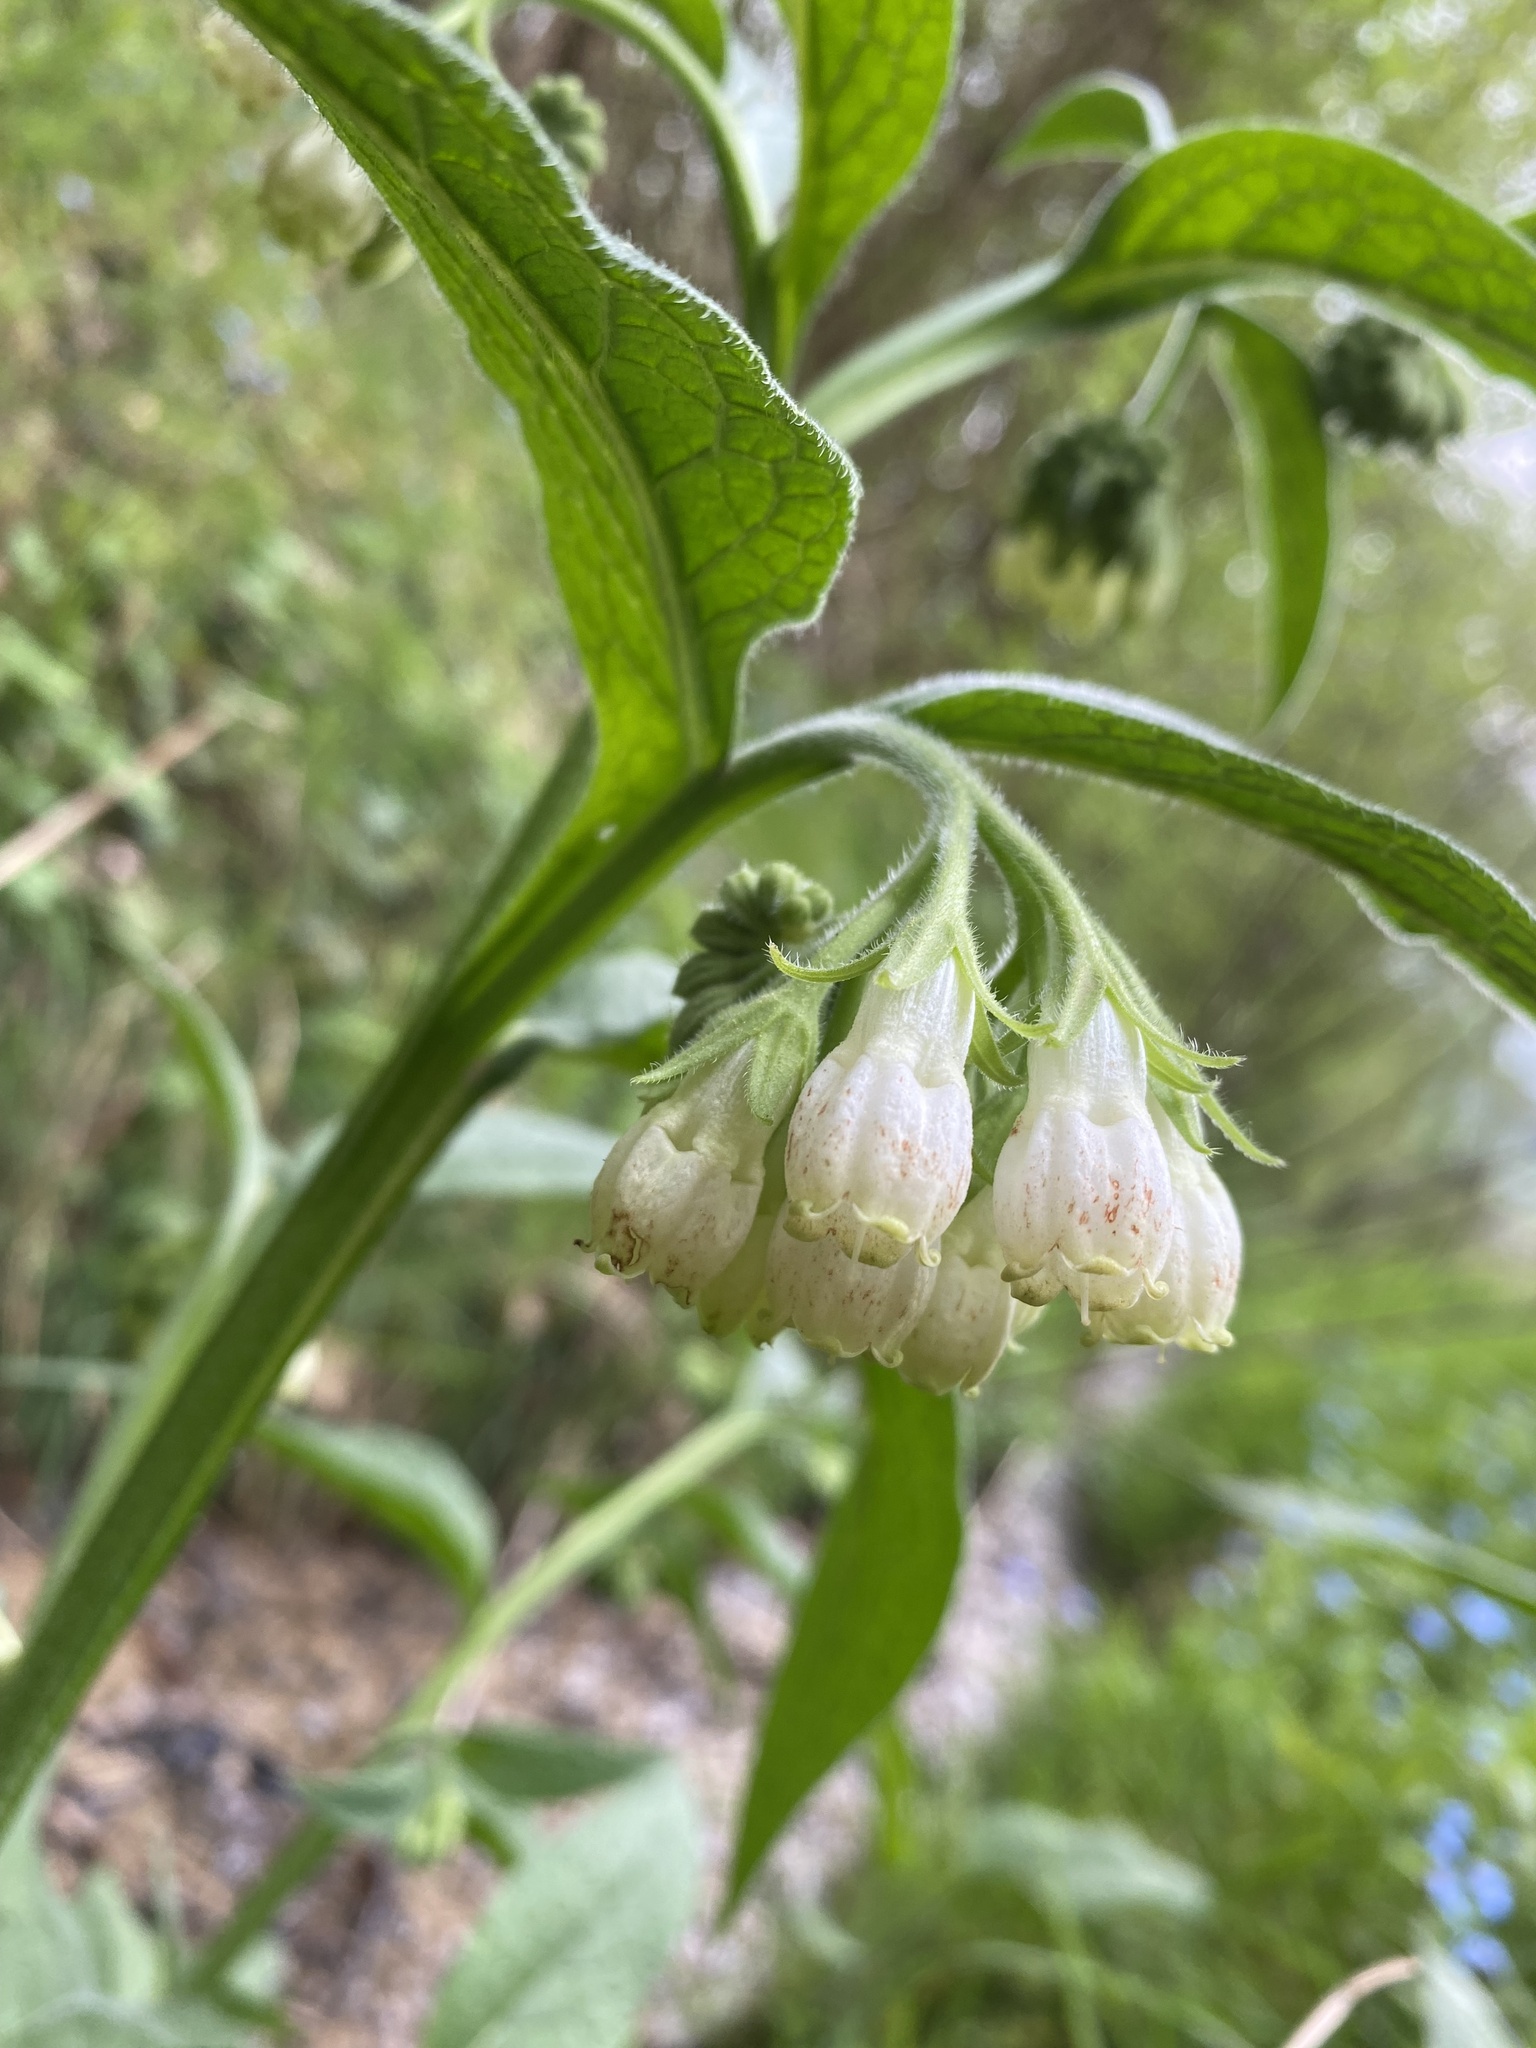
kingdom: Plantae
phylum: Tracheophyta
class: Magnoliopsida
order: Boraginales
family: Boraginaceae
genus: Symphytum
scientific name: Symphytum officinale
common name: Common comfrey
